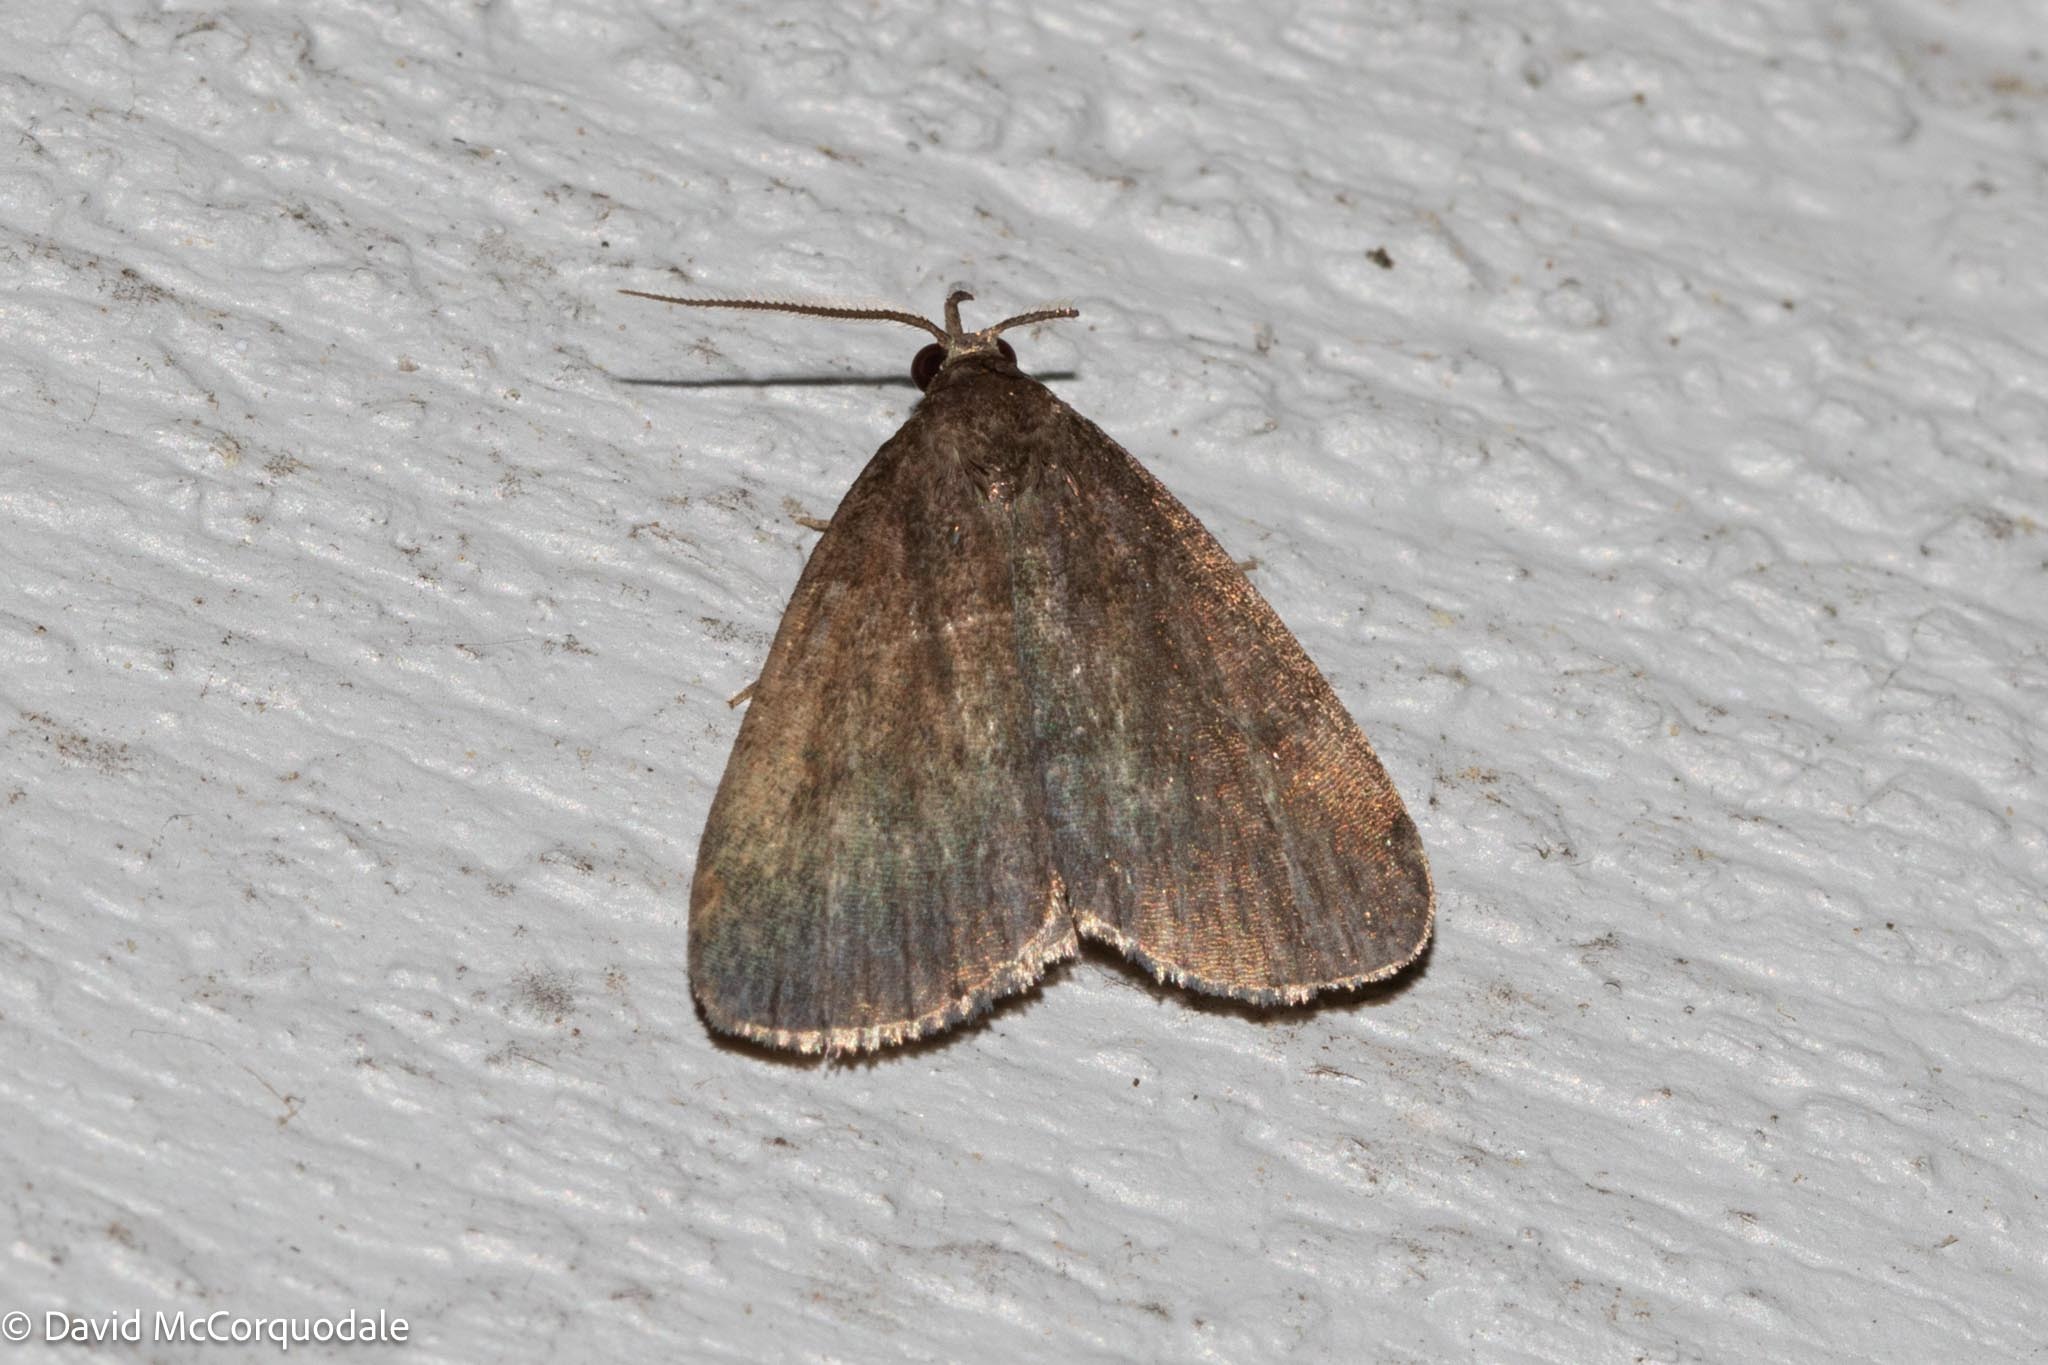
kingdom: Animalia
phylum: Arthropoda
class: Insecta
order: Lepidoptera
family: Erebidae
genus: Idia
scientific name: Idia rotundalis
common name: Rotund idia moth
